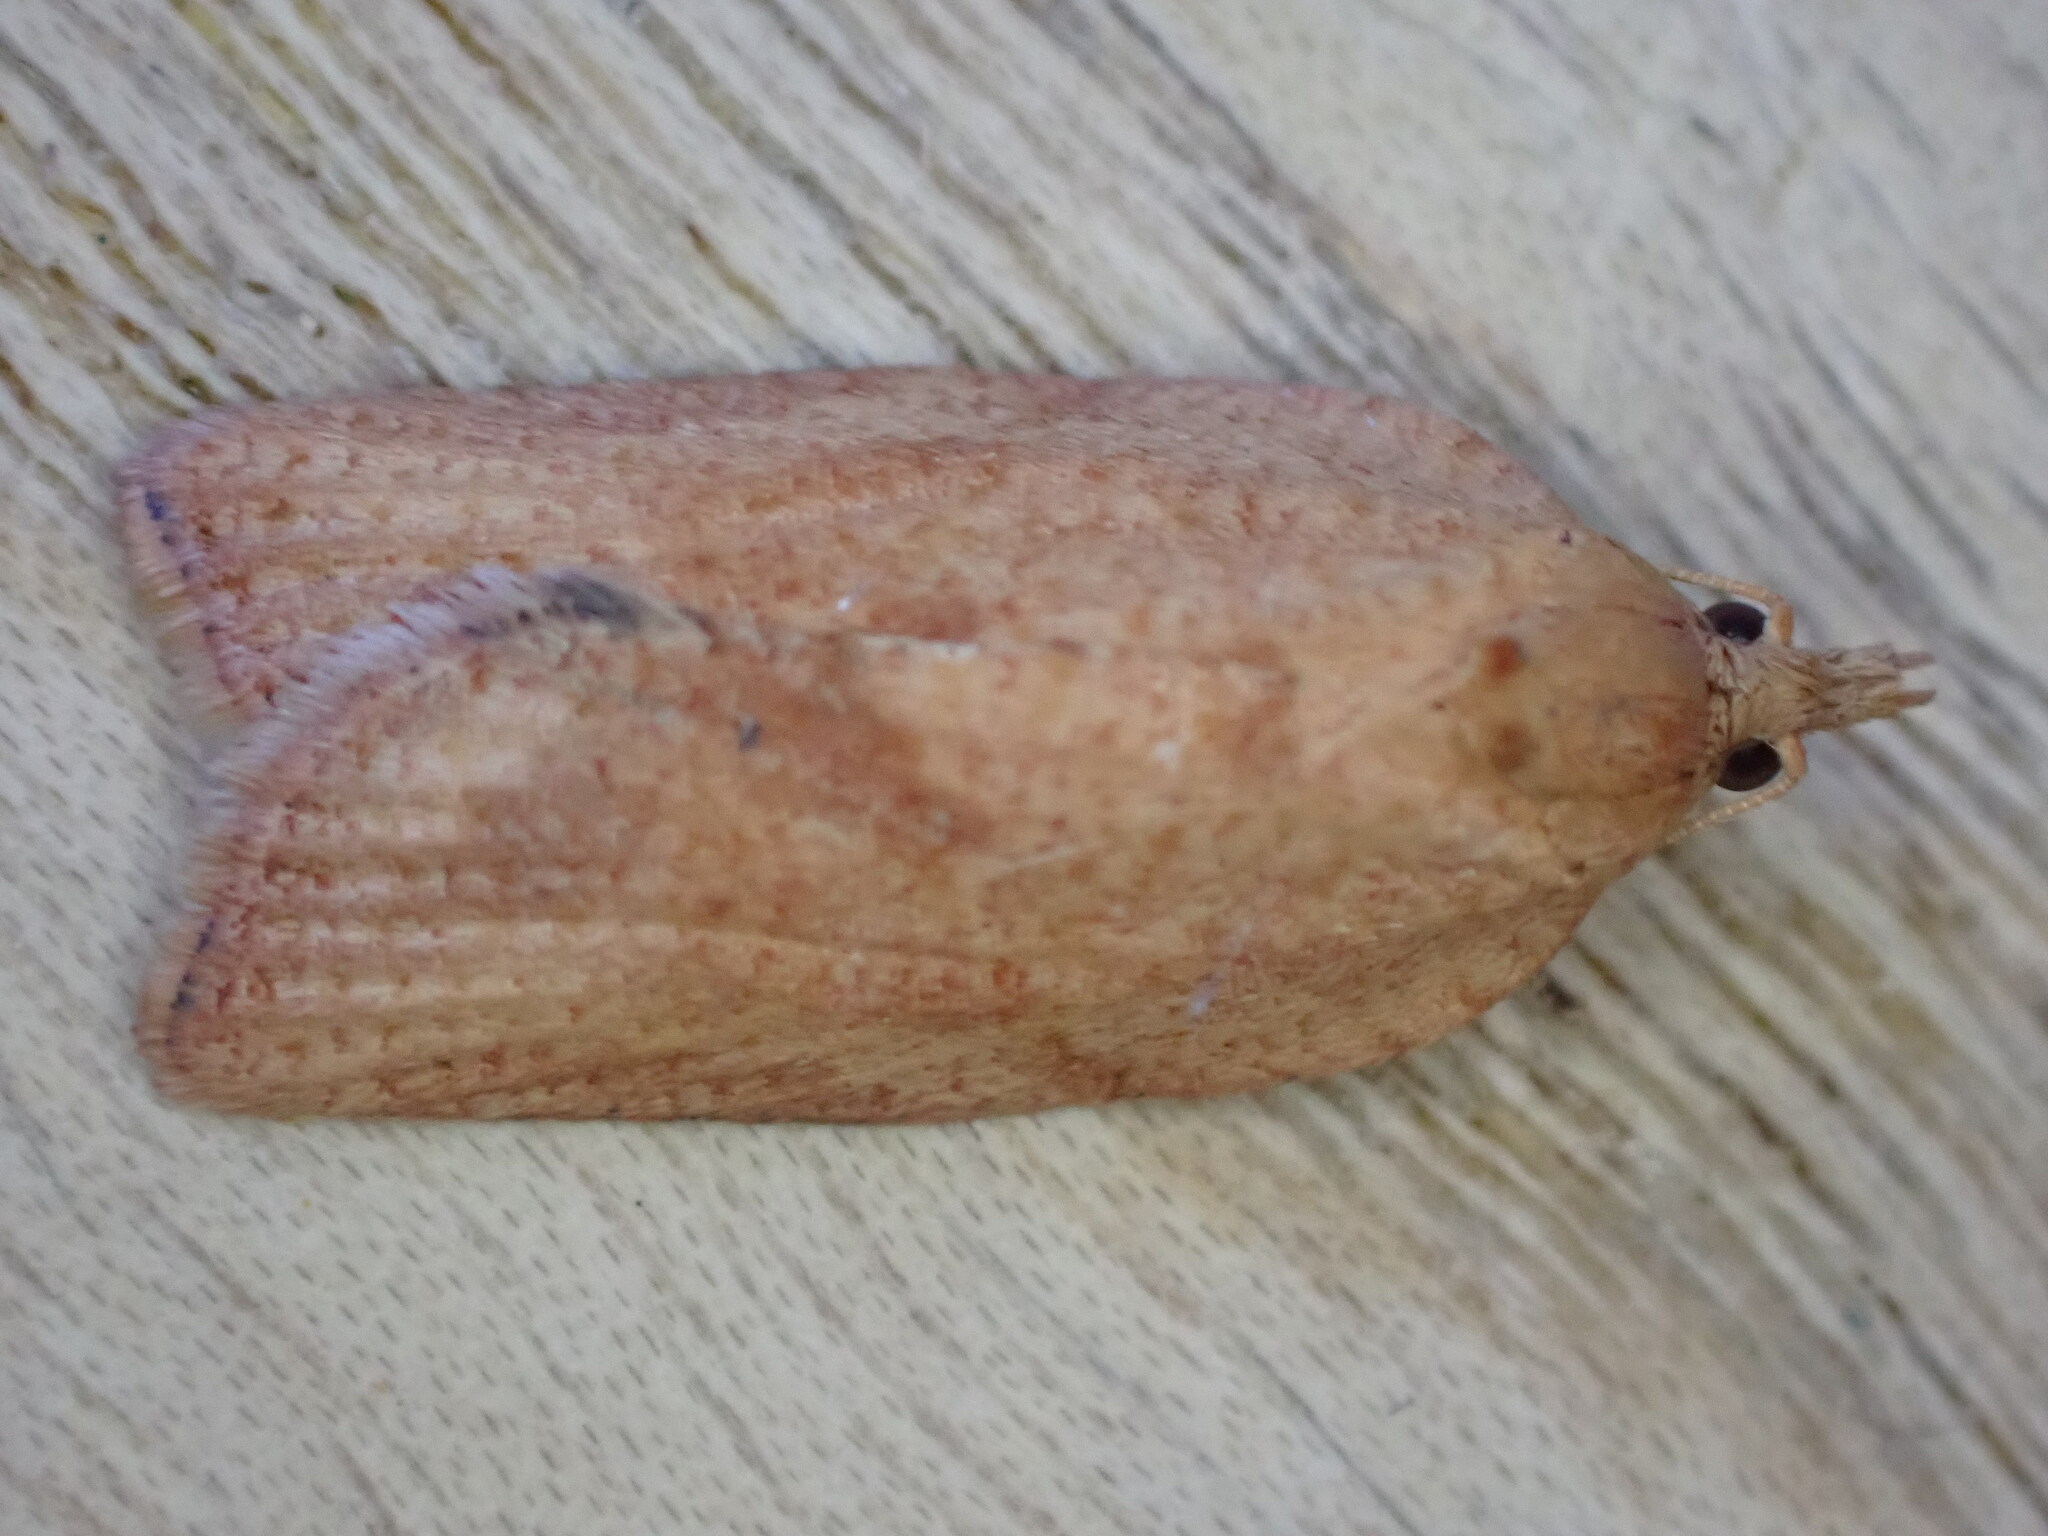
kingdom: Animalia
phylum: Arthropoda
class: Insecta
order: Lepidoptera
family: Tortricidae
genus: Epiphyas
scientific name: Epiphyas postvittana
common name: Light brown apple moth
